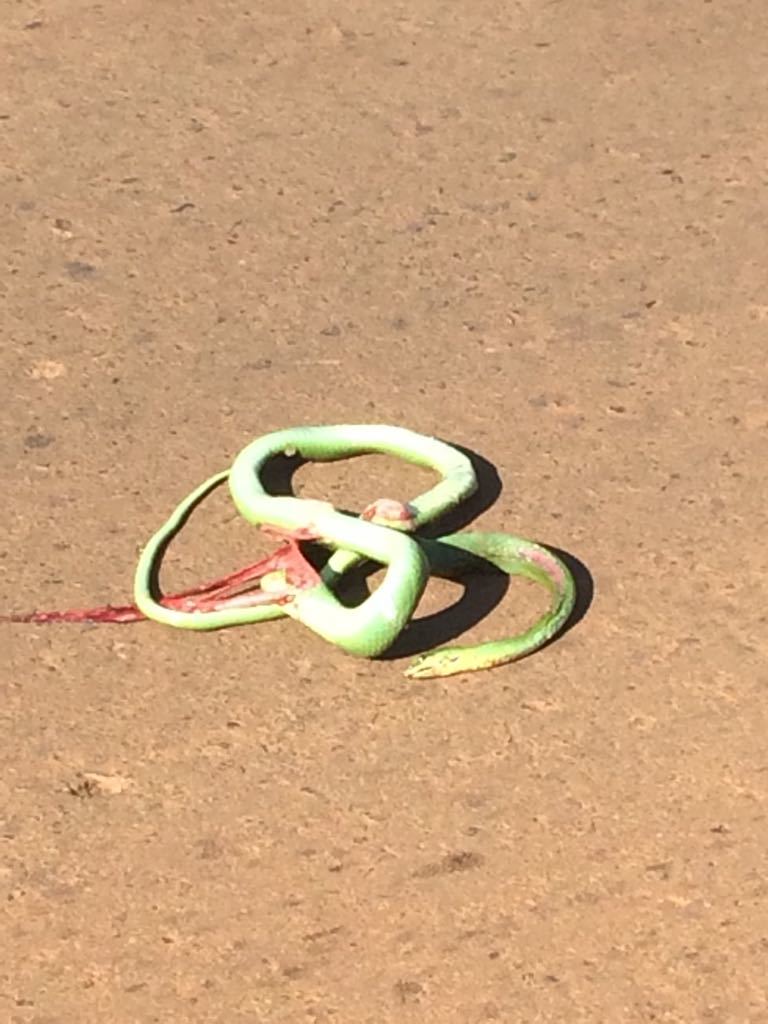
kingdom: Animalia
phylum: Chordata
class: Squamata
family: Colubridae
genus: Philodryas
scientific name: Philodryas olfersii
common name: Lichtenstein's green racer
